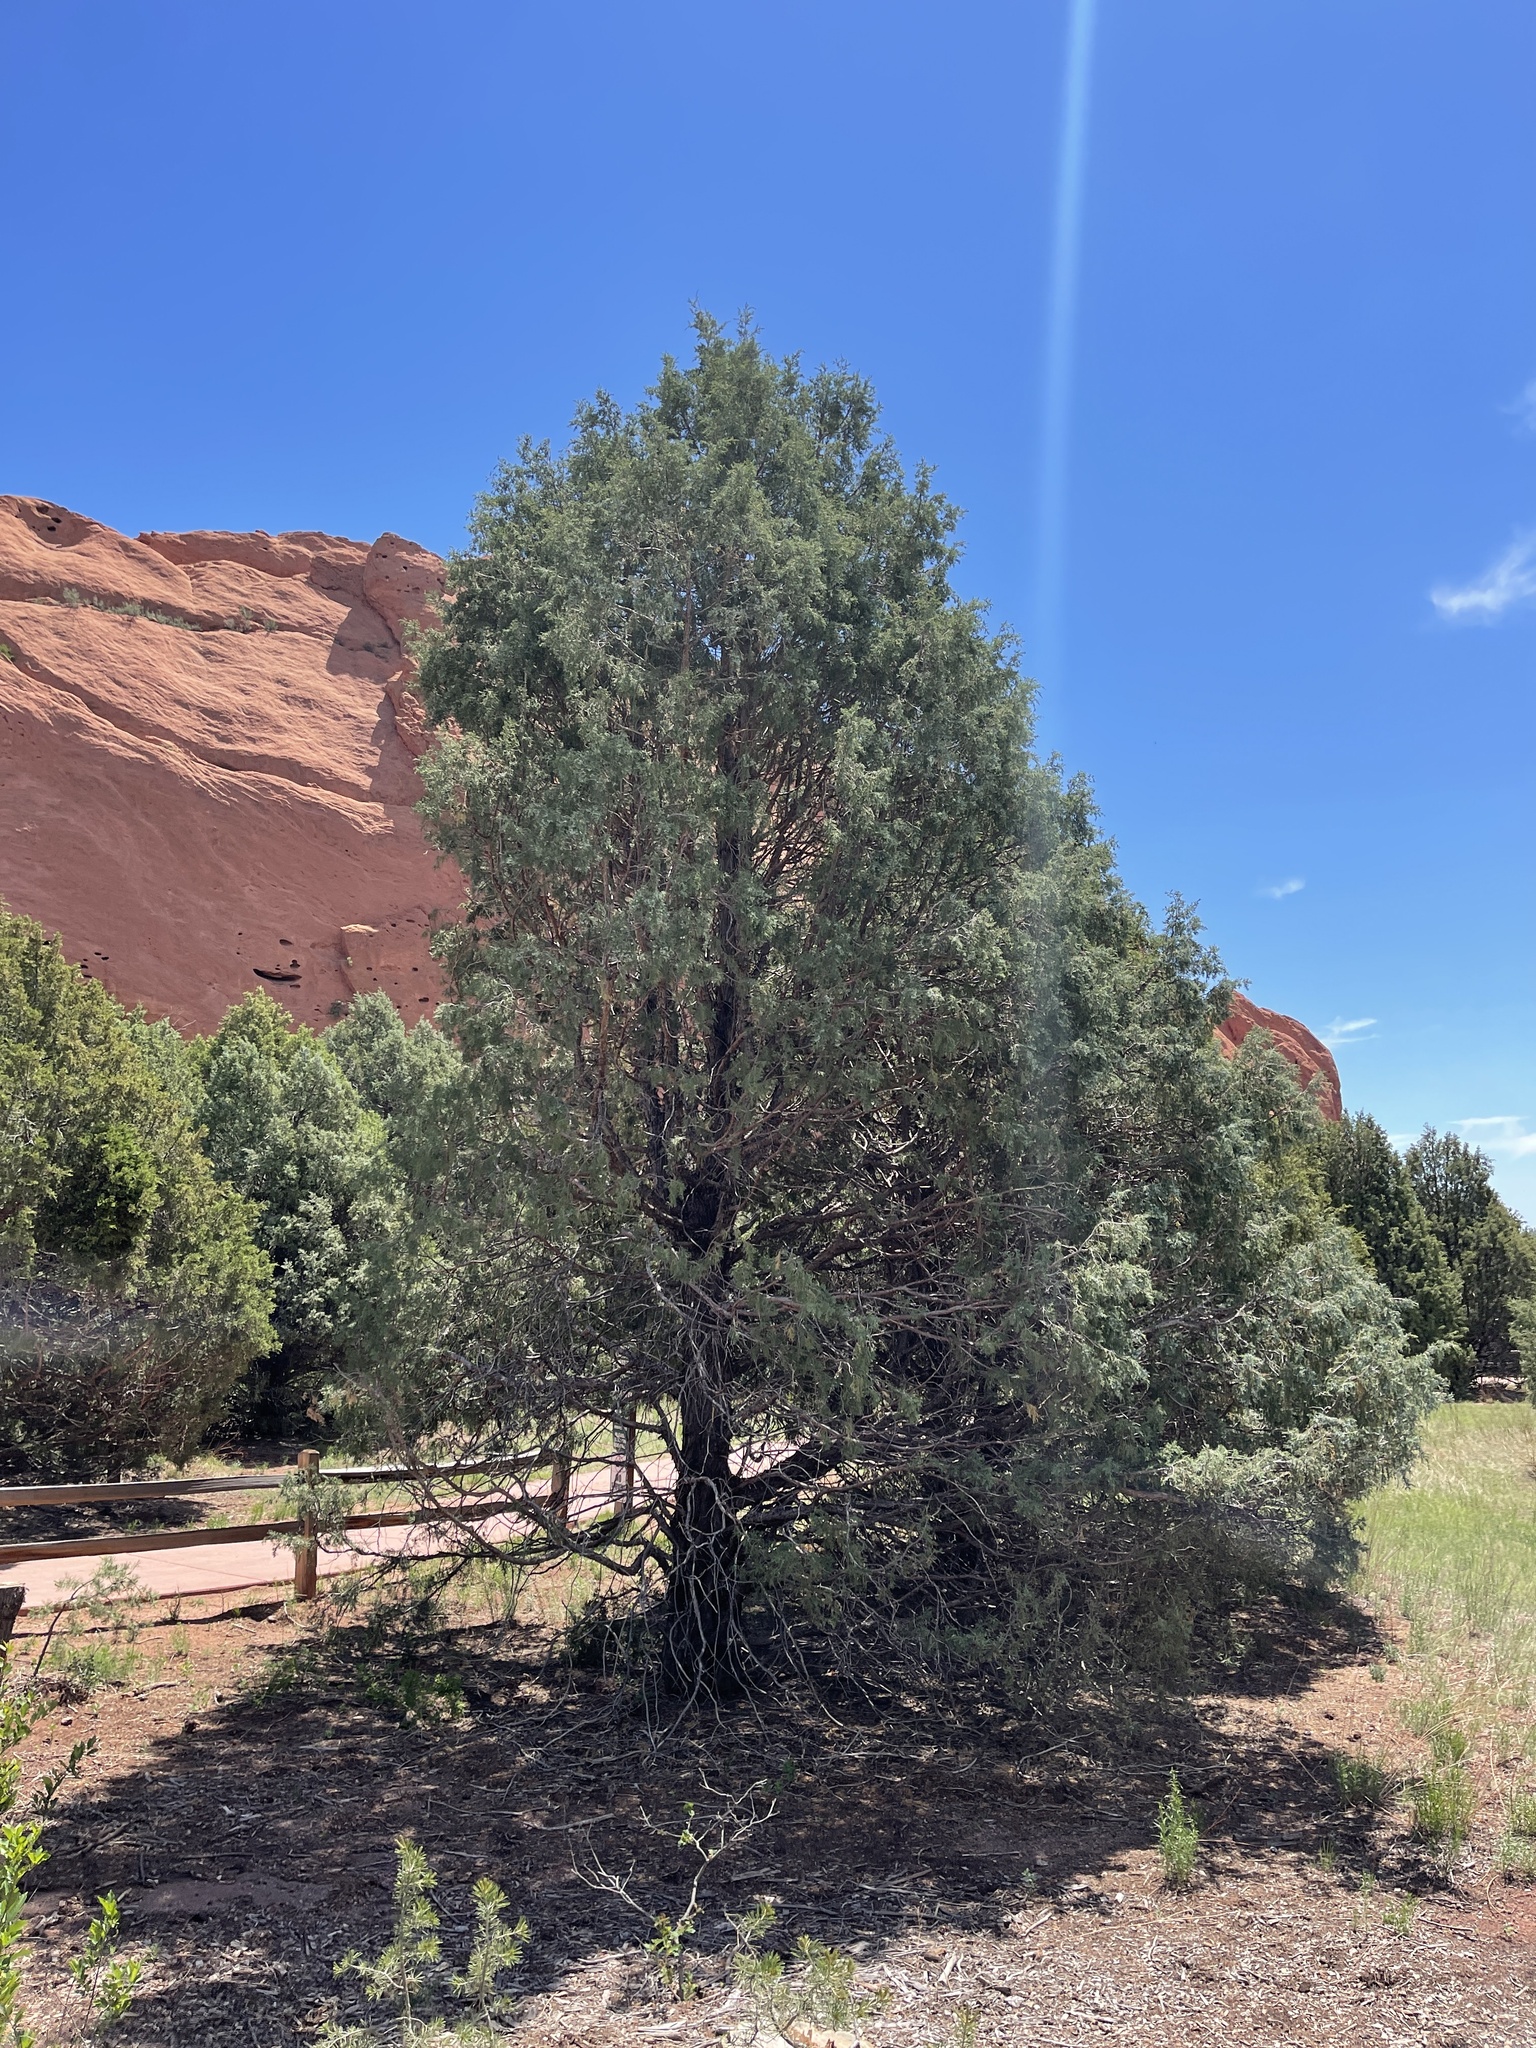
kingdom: Plantae
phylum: Tracheophyta
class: Pinopsida
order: Pinales
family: Cupressaceae
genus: Juniperus
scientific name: Juniperus scopulorum
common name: Rocky mountain juniper
